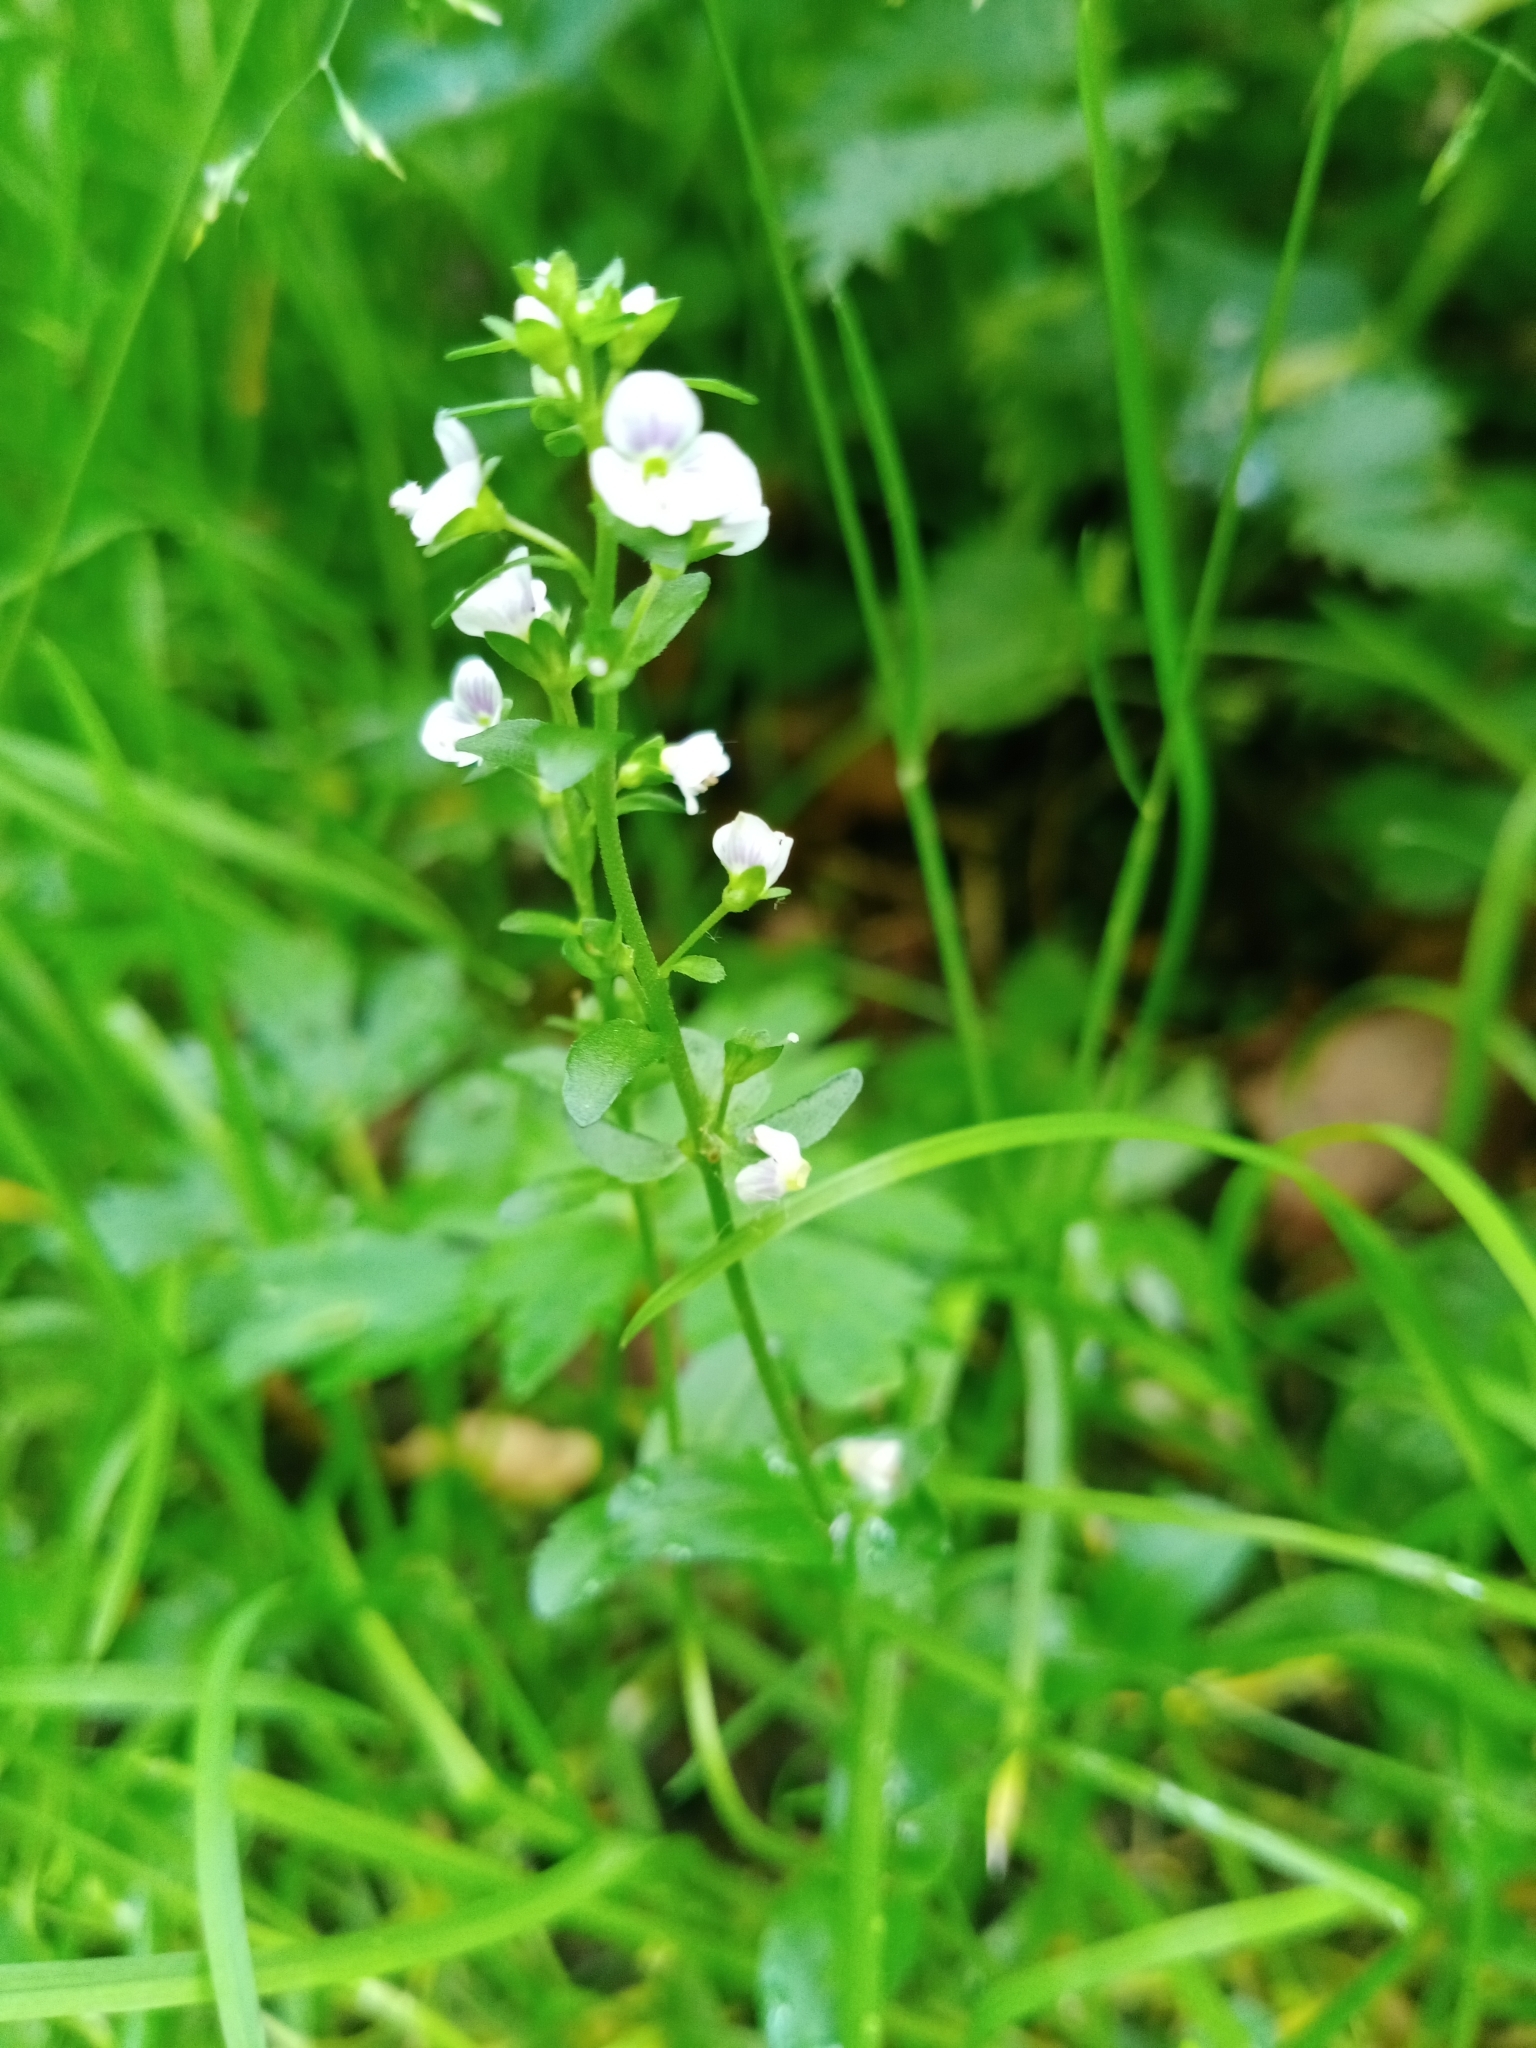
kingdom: Plantae
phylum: Tracheophyta
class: Magnoliopsida
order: Lamiales
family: Plantaginaceae
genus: Veronica
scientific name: Veronica serpyllifolia
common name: Thyme-leaved speedwell
